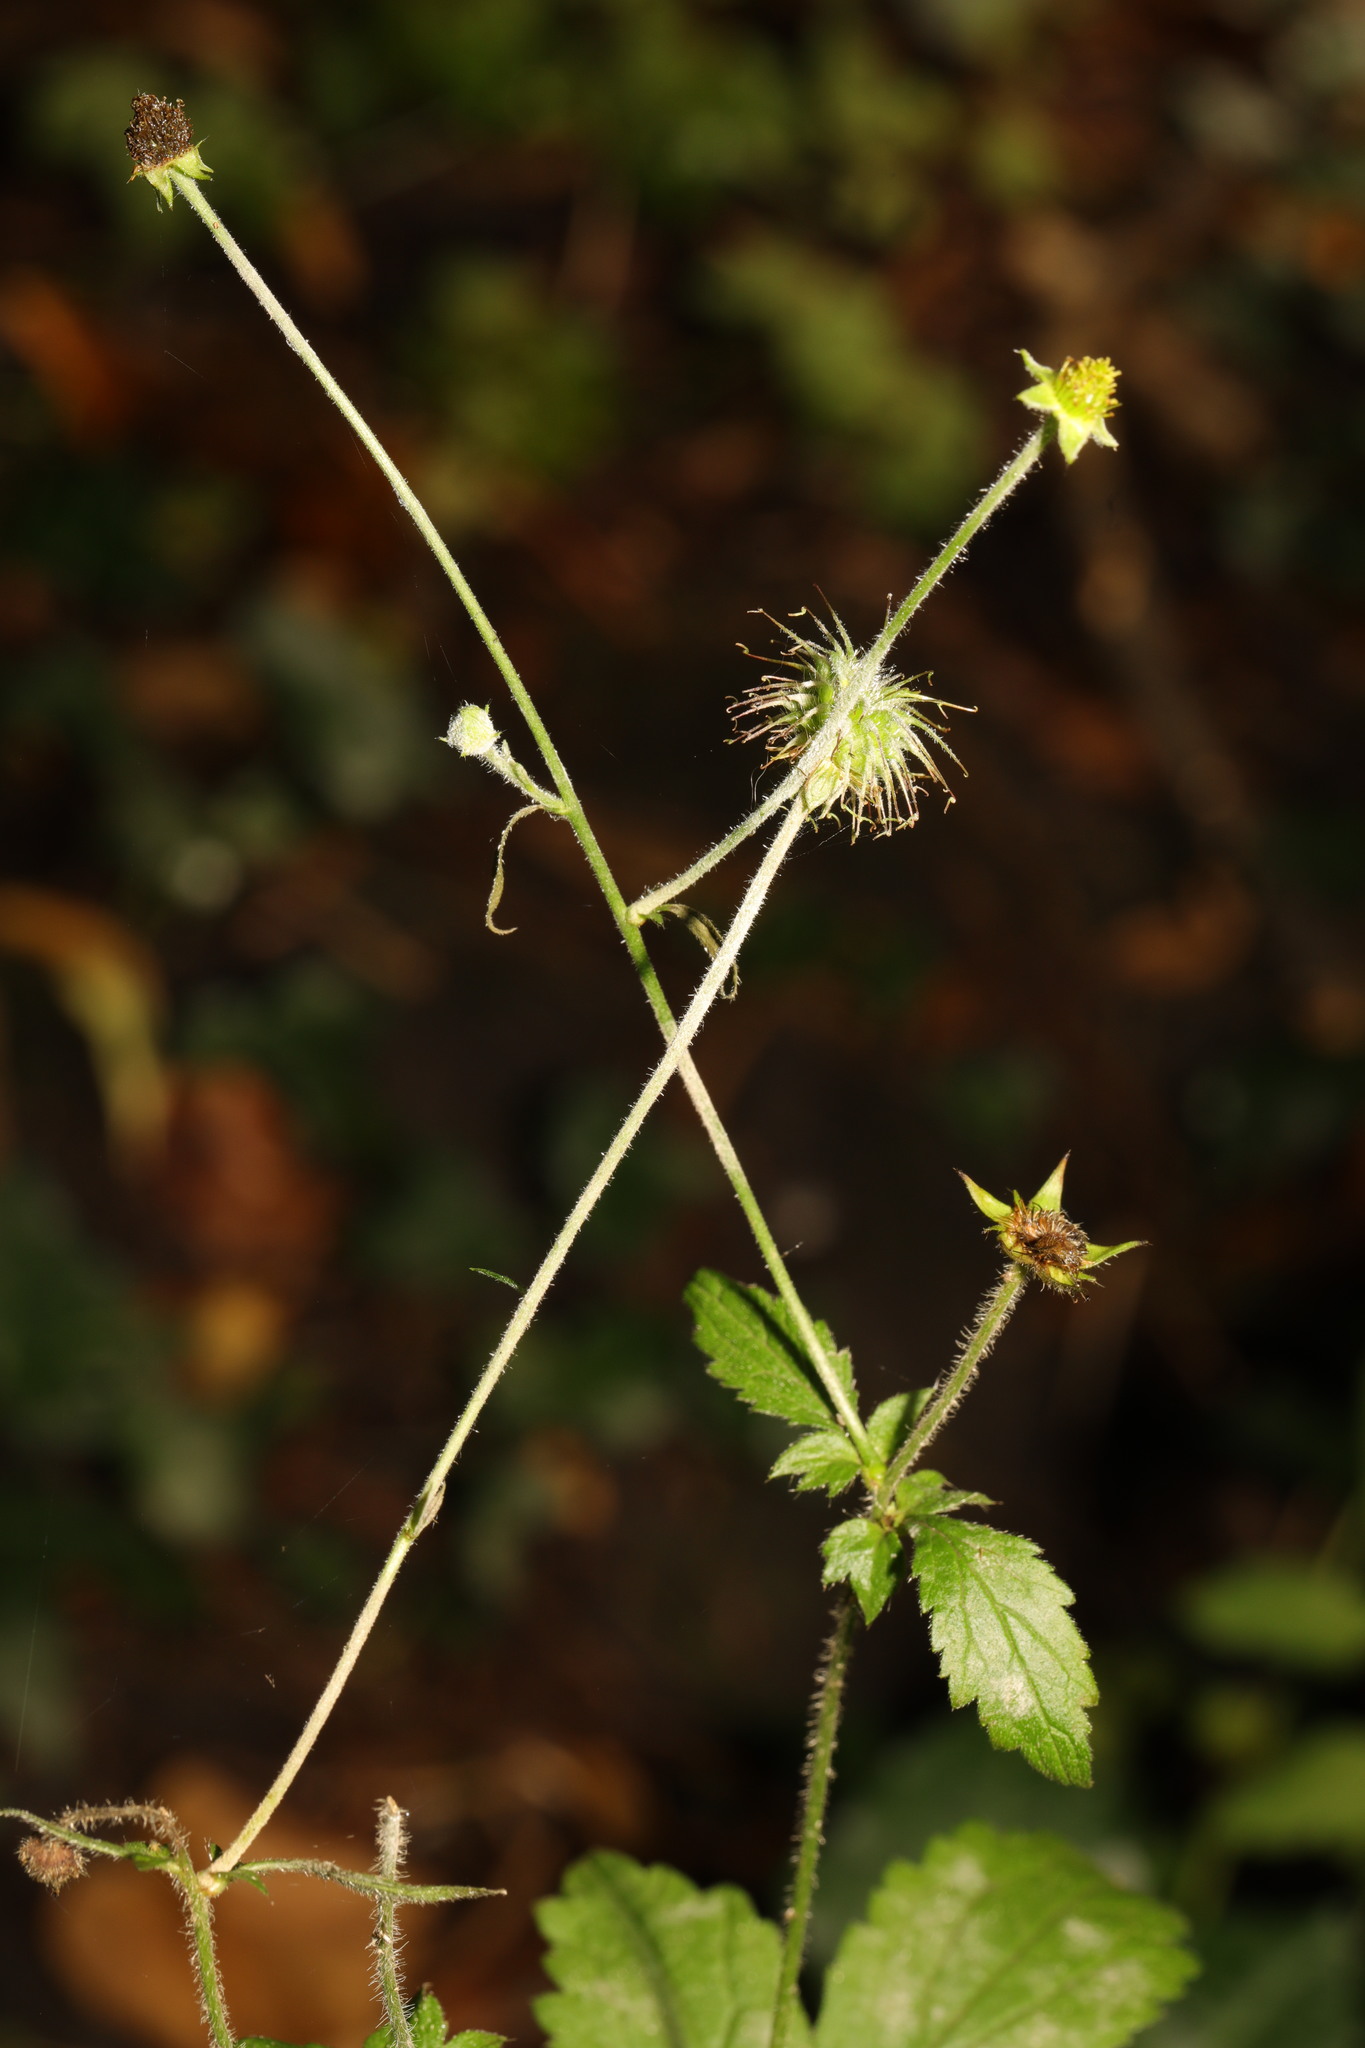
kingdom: Plantae
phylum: Tracheophyta
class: Magnoliopsida
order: Rosales
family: Rosaceae
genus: Geum
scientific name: Geum urbanum
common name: Wood avens
